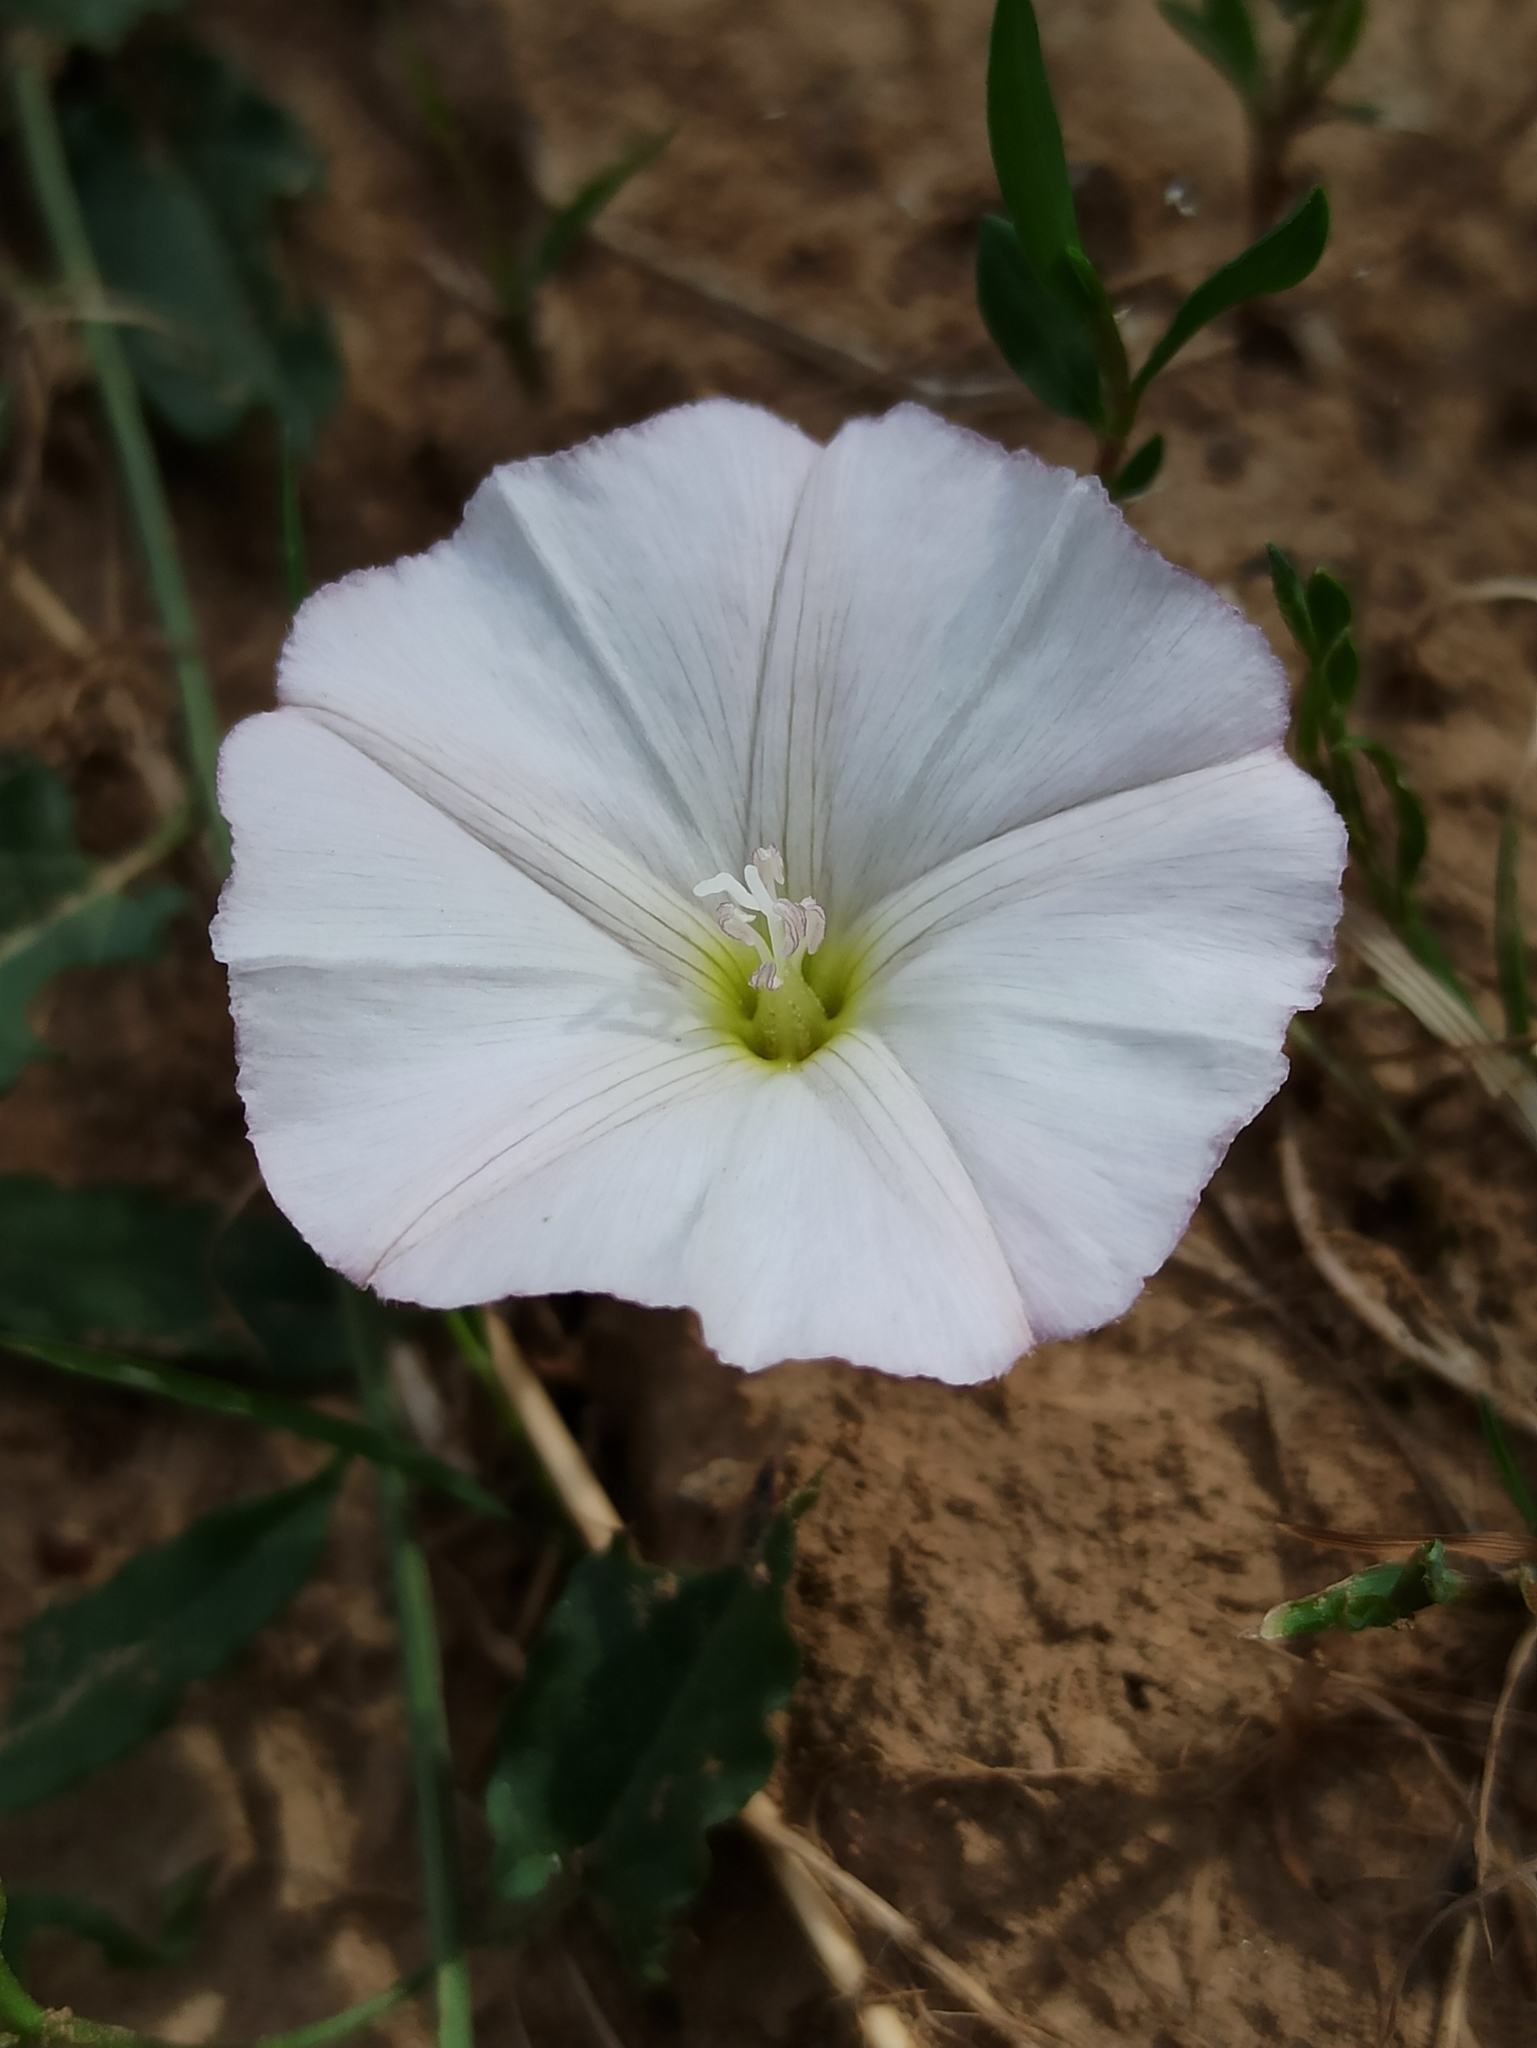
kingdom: Plantae
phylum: Tracheophyta
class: Magnoliopsida
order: Solanales
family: Convolvulaceae
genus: Convolvulus
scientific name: Convolvulus arvensis
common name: Field bindweed
